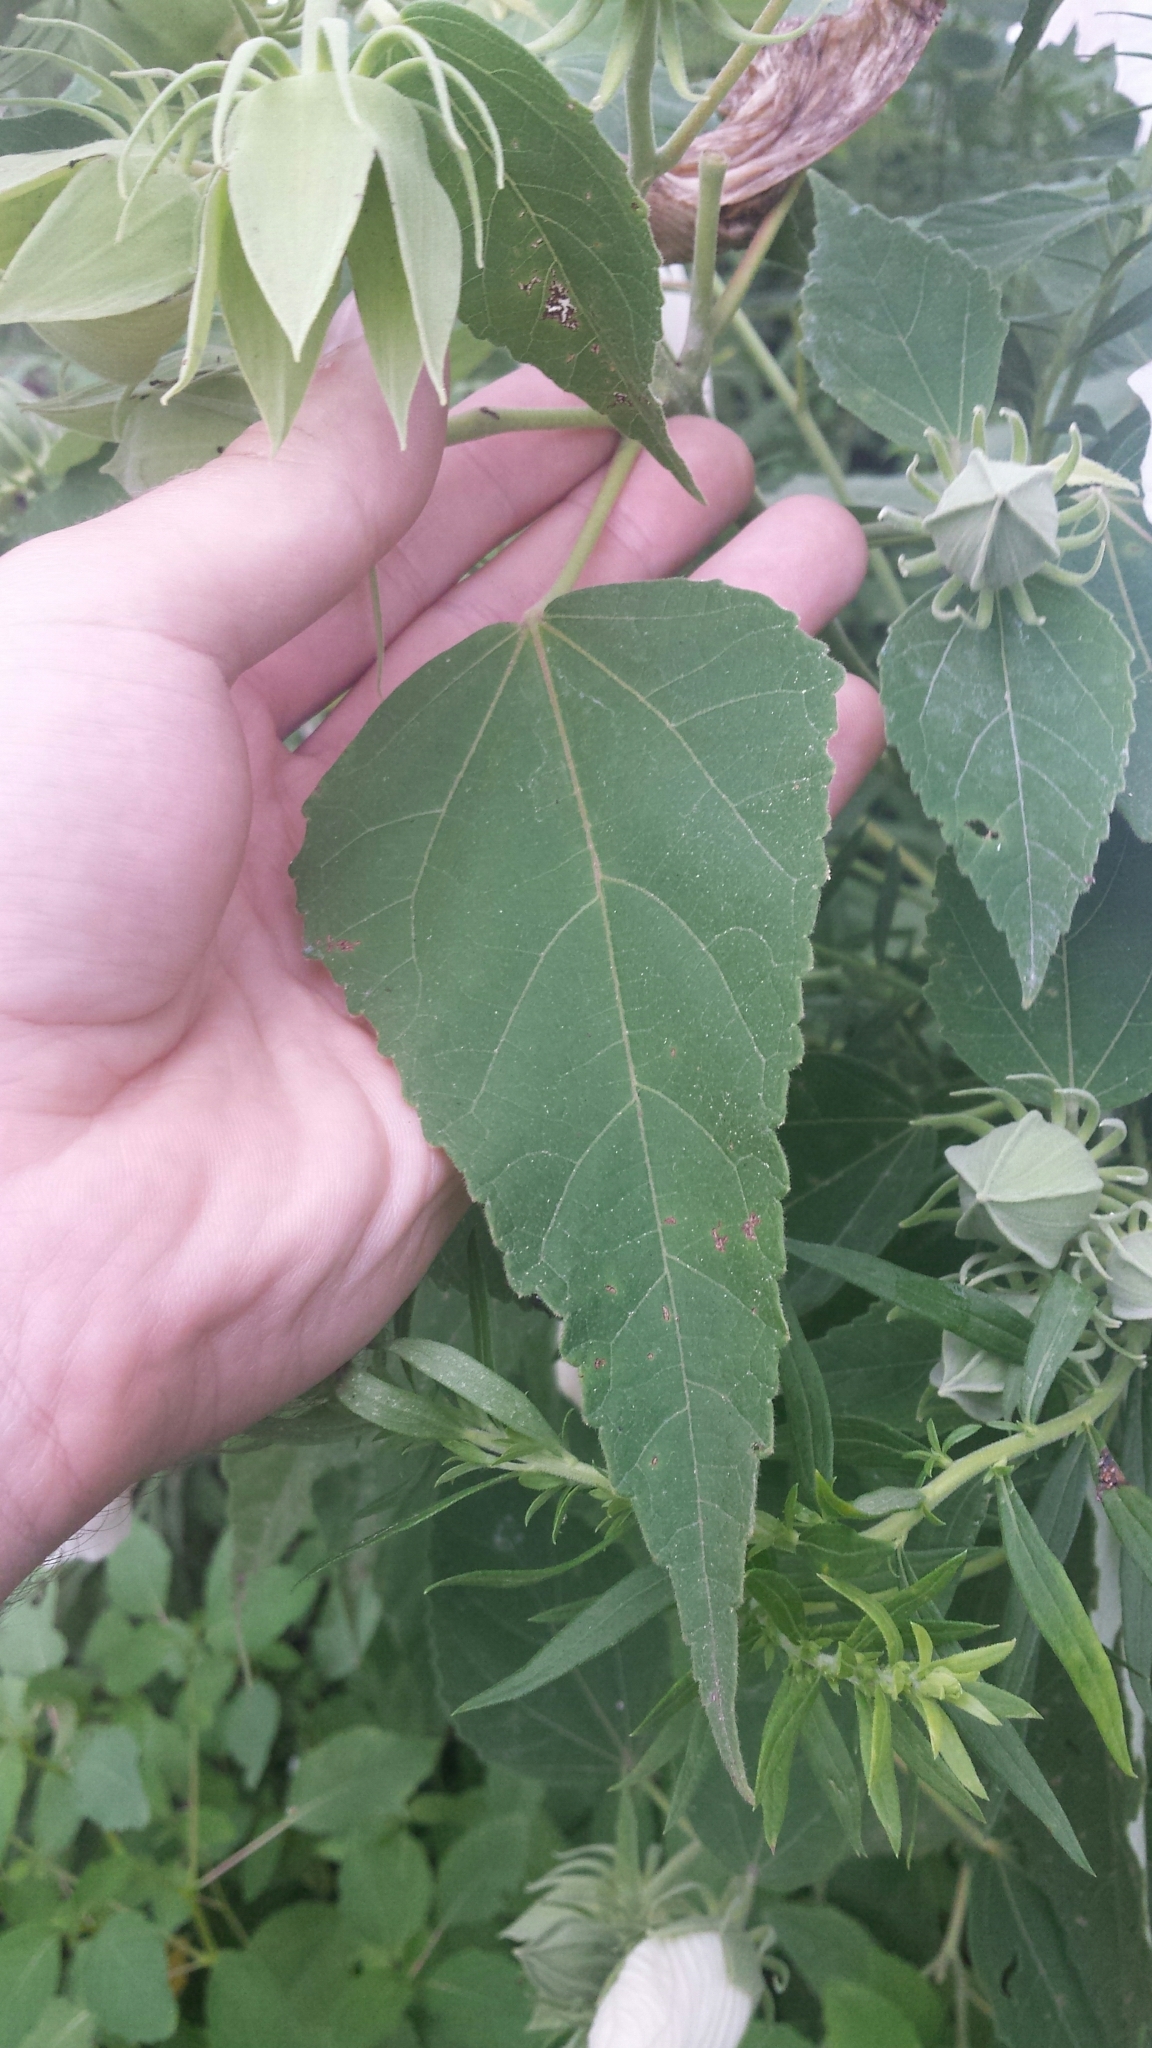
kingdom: Plantae
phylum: Tracheophyta
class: Magnoliopsida
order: Malvales
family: Malvaceae
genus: Hibiscus
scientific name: Hibiscus moscheutos
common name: Common rose-mallow
